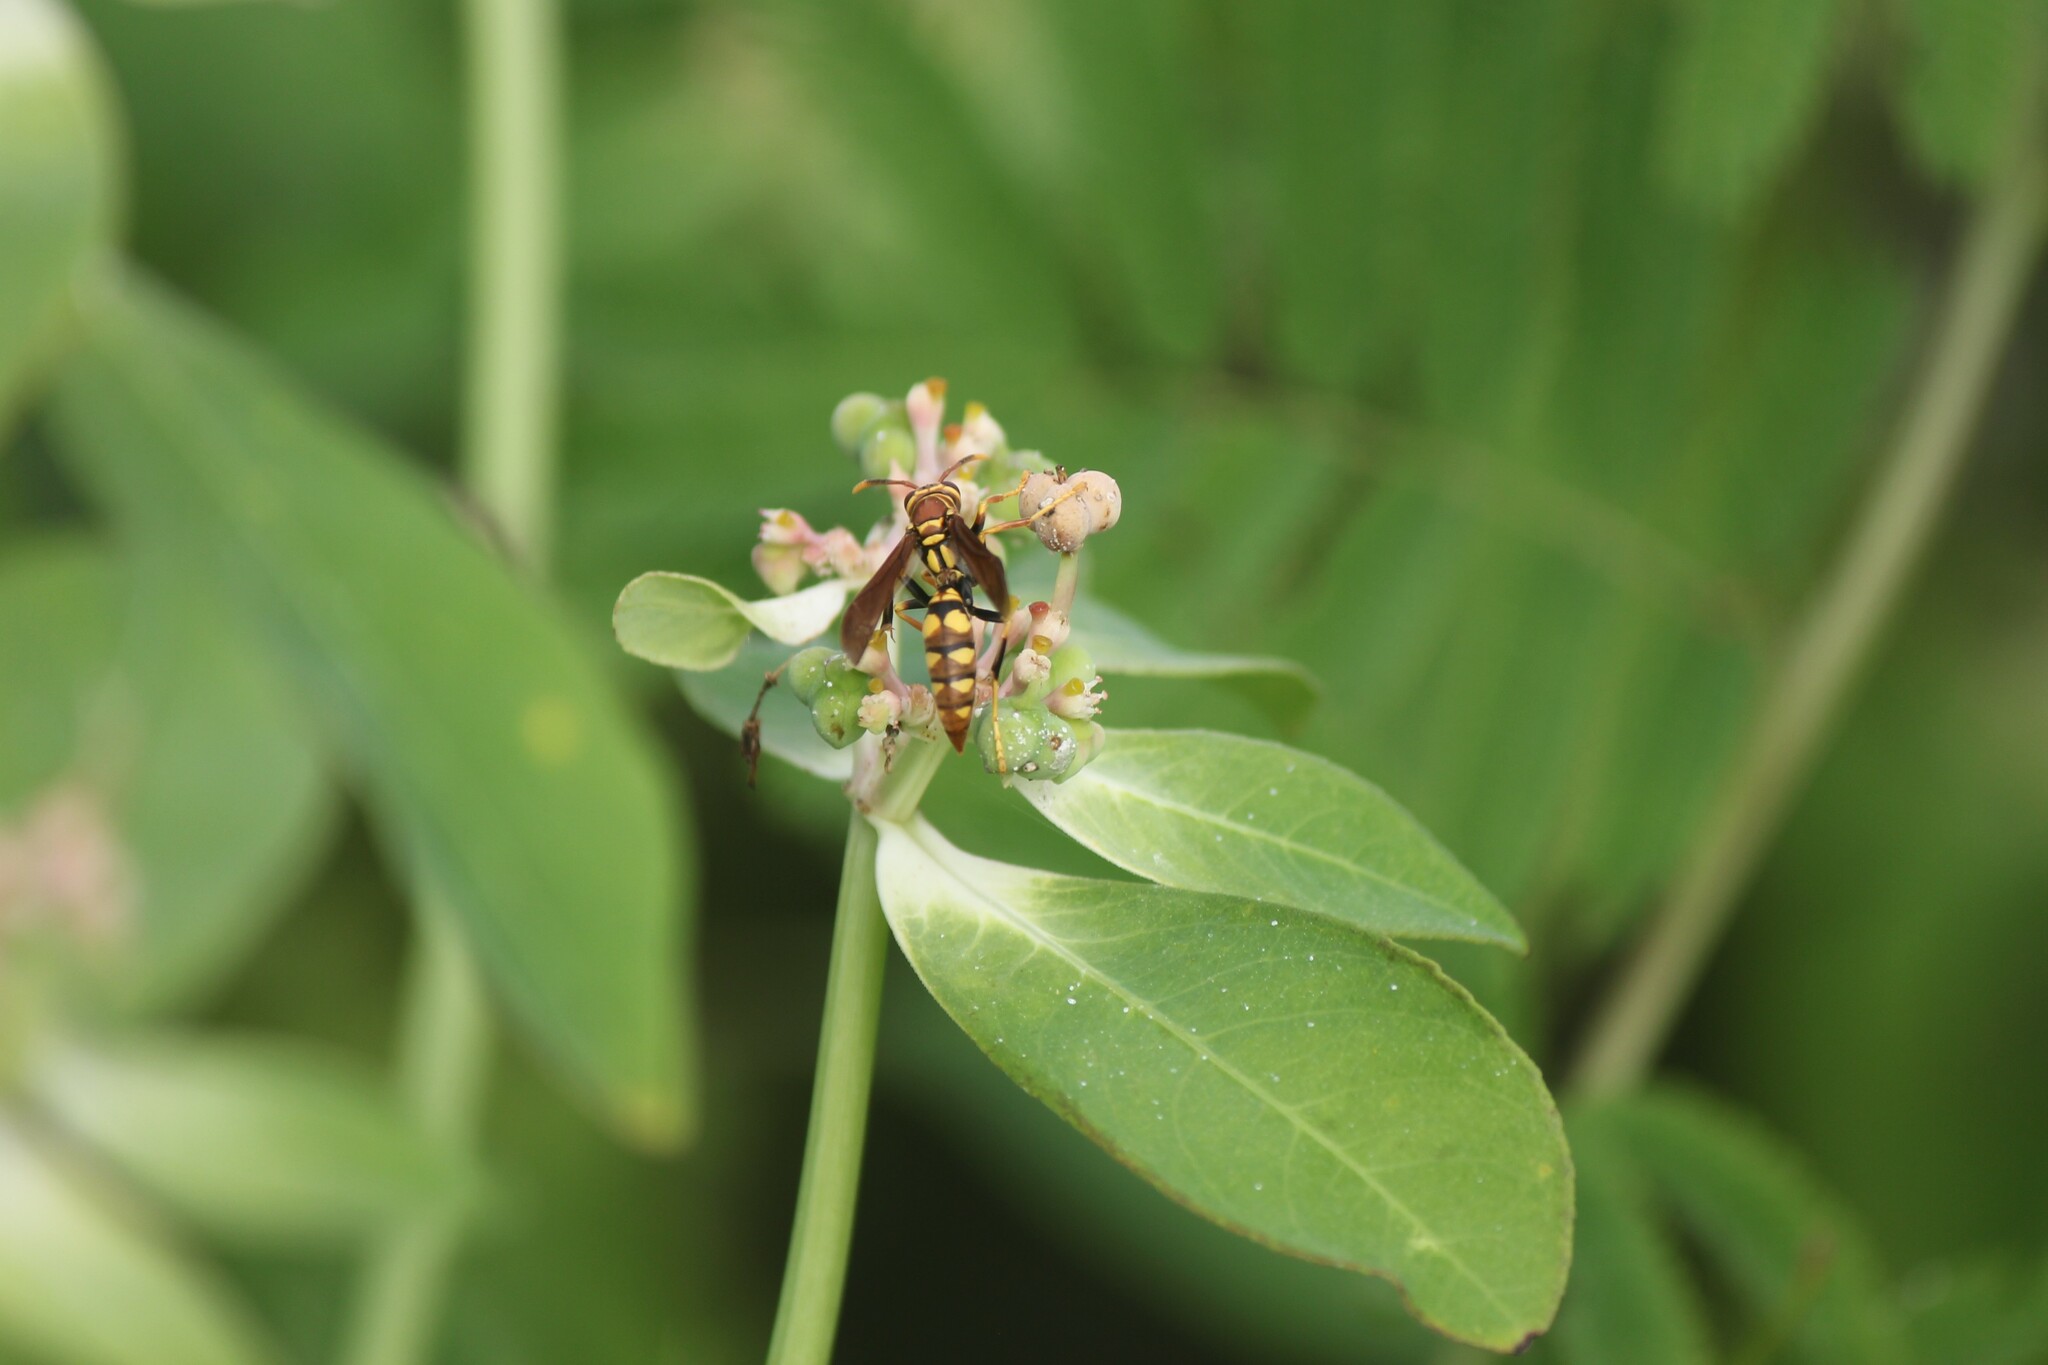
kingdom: Animalia
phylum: Arthropoda
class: Insecta
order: Hymenoptera
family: Eumenidae
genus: Polistes
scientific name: Polistes versicolor
